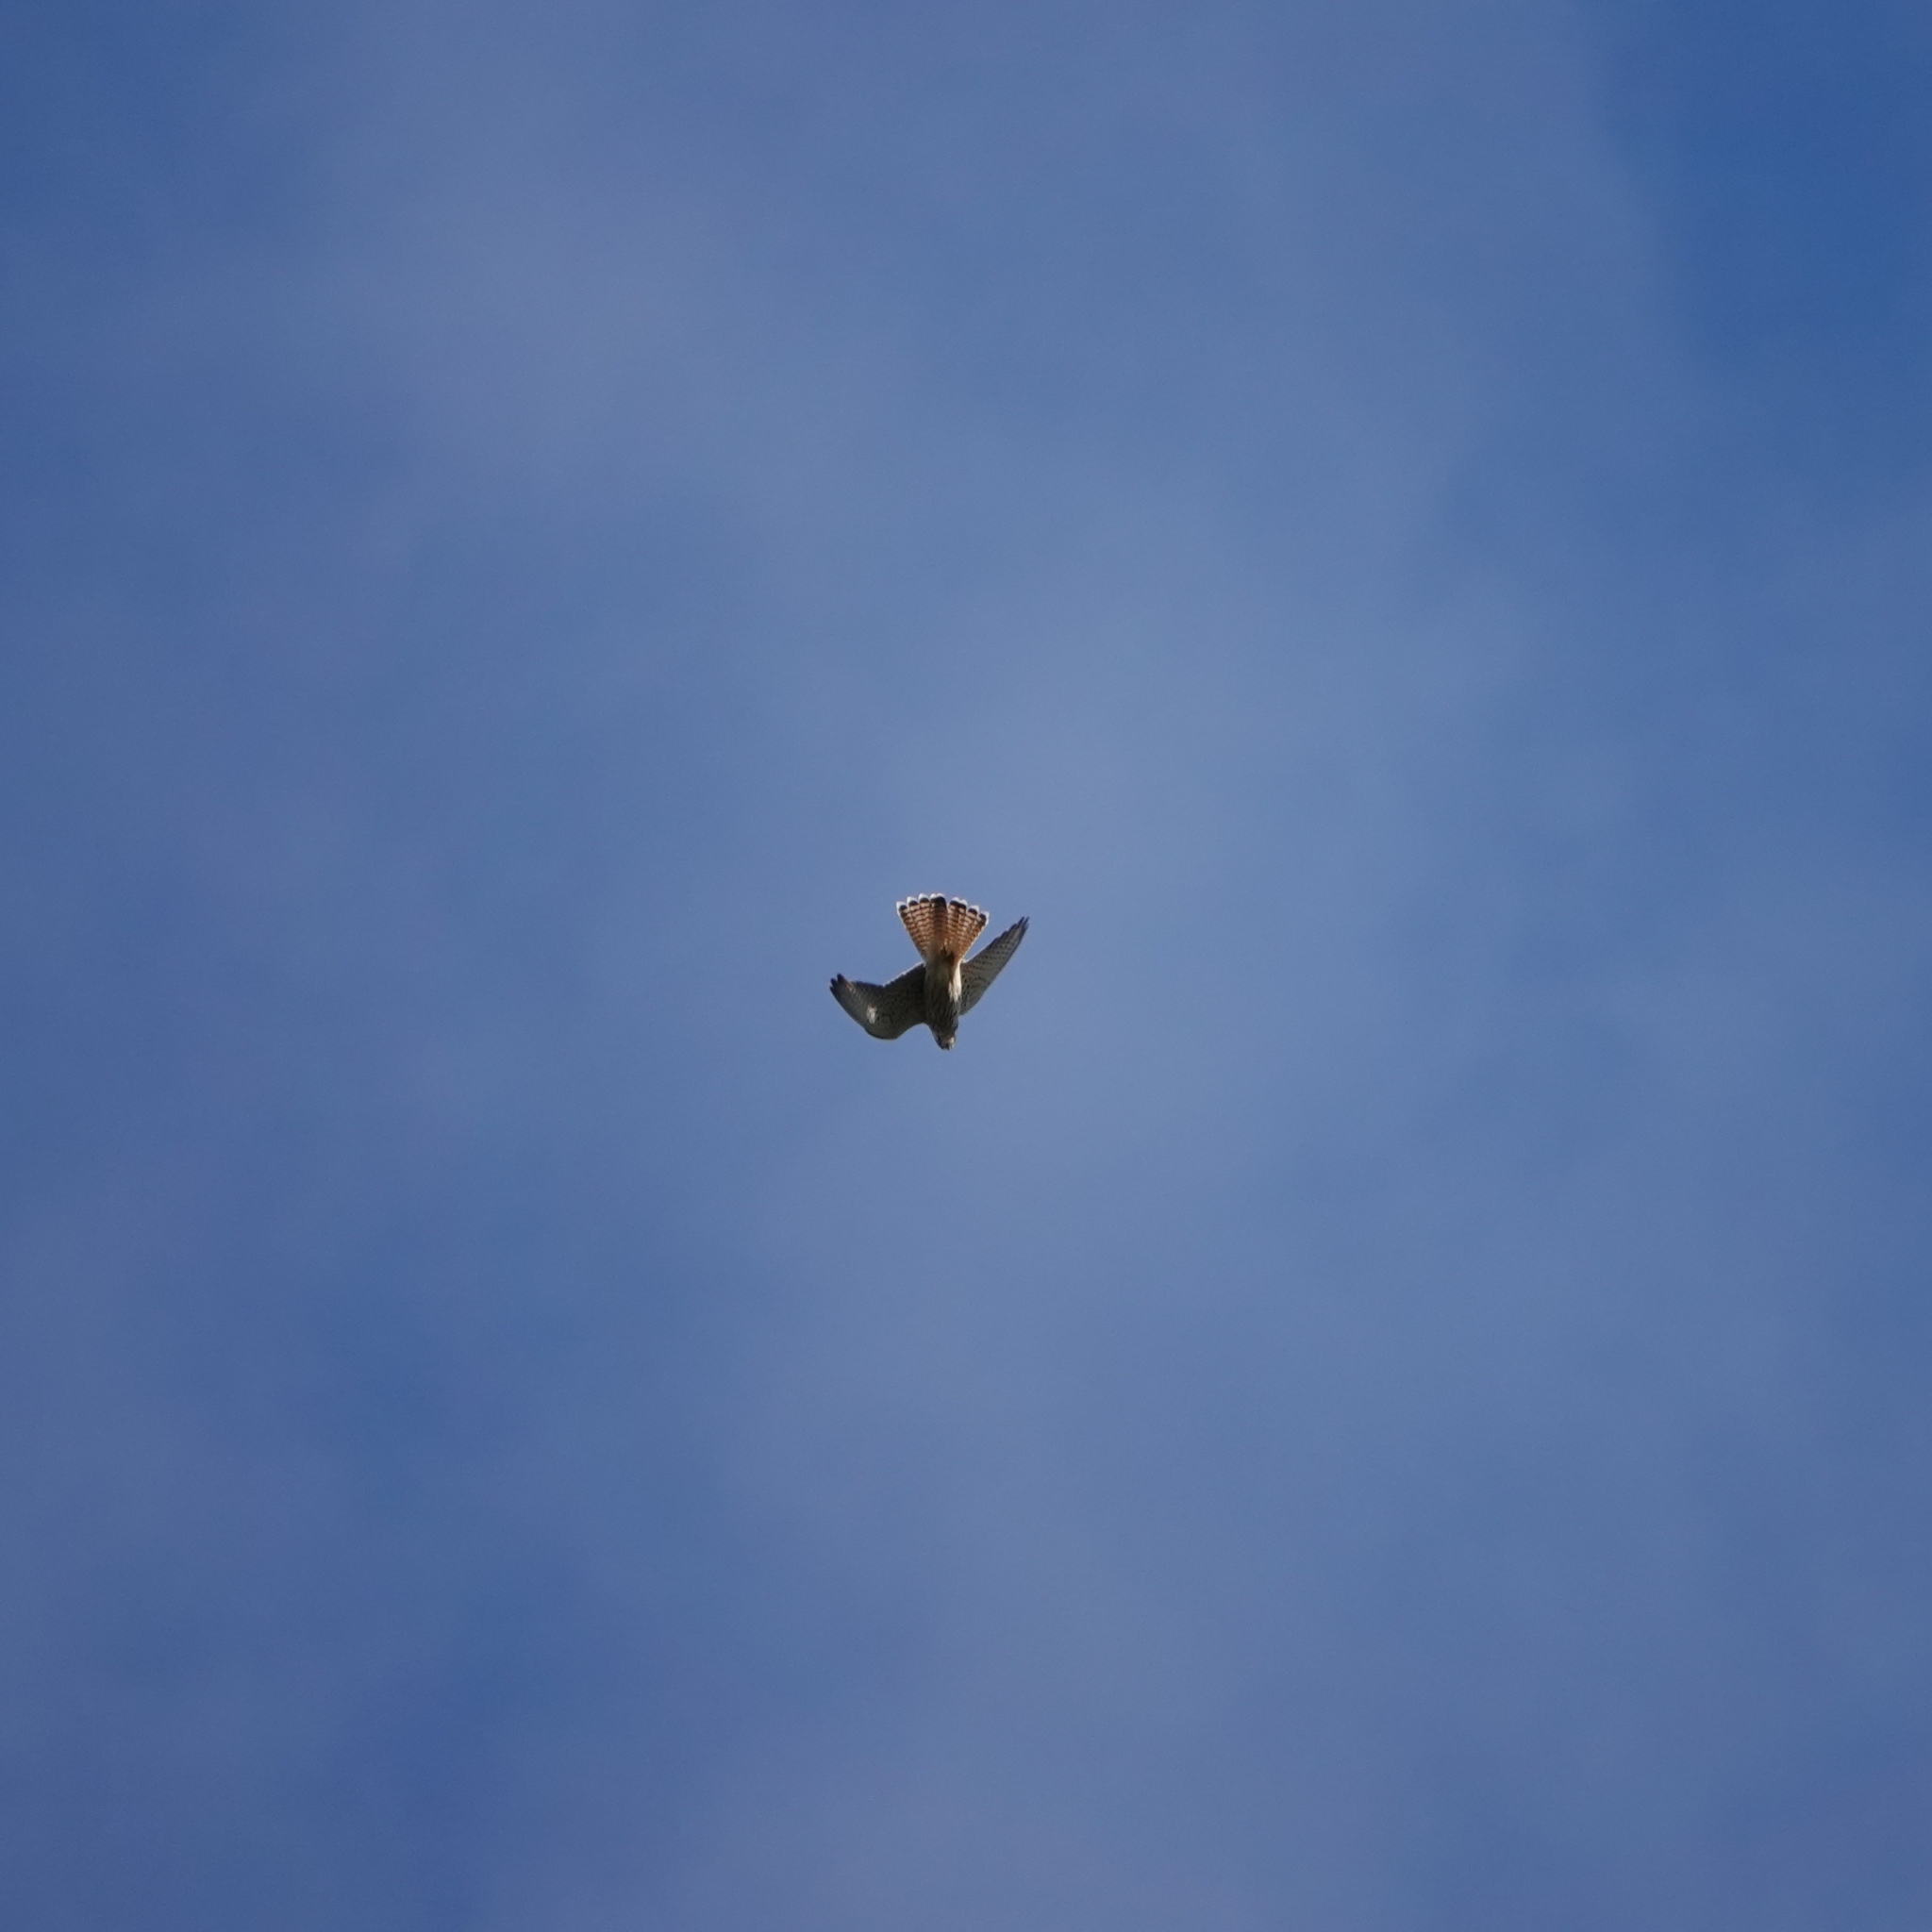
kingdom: Animalia
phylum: Chordata
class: Aves
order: Falconiformes
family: Falconidae
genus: Falco
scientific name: Falco tinnunculus
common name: Common kestrel
